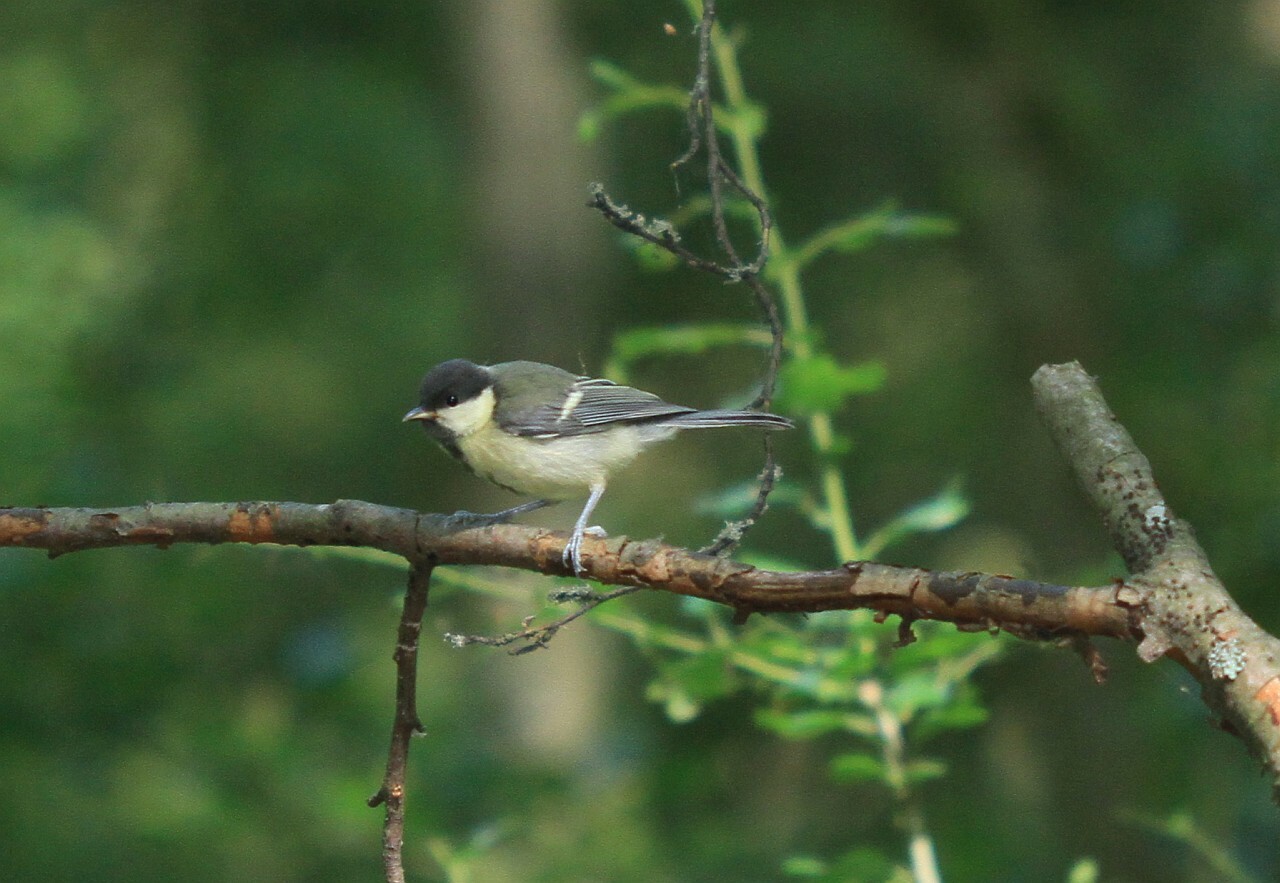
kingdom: Animalia
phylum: Chordata
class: Aves
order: Passeriformes
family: Paridae
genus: Parus
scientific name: Parus major
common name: Great tit
